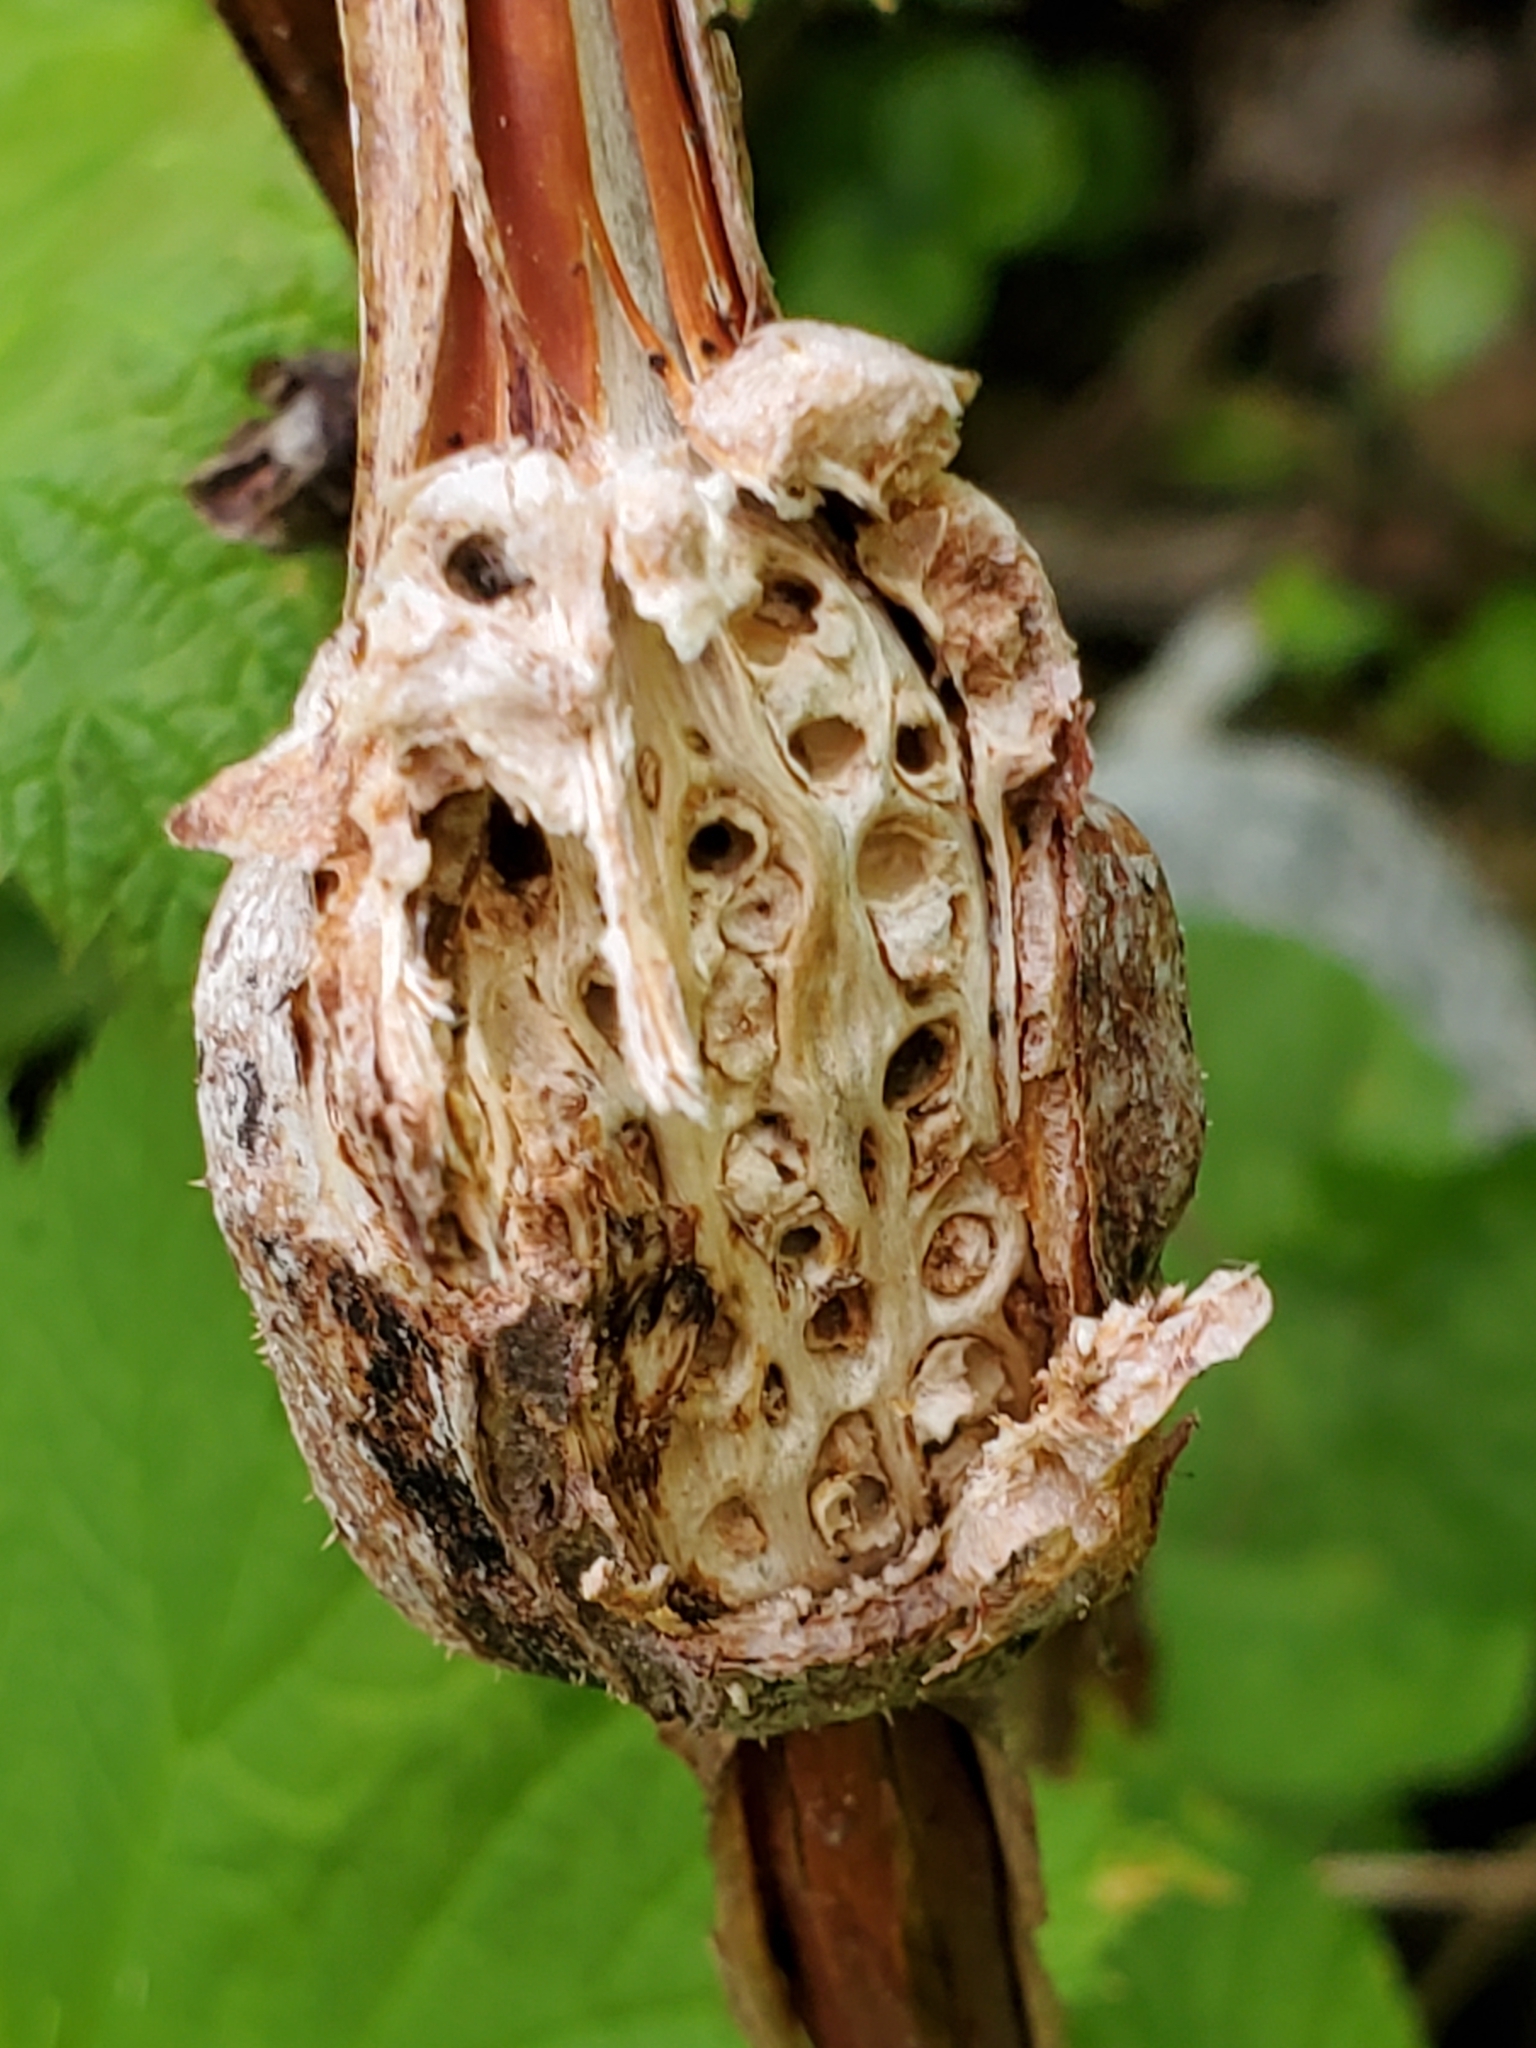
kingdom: Animalia
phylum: Arthropoda
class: Insecta
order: Hymenoptera
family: Cynipidae
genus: Diastrophus
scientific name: Diastrophus
